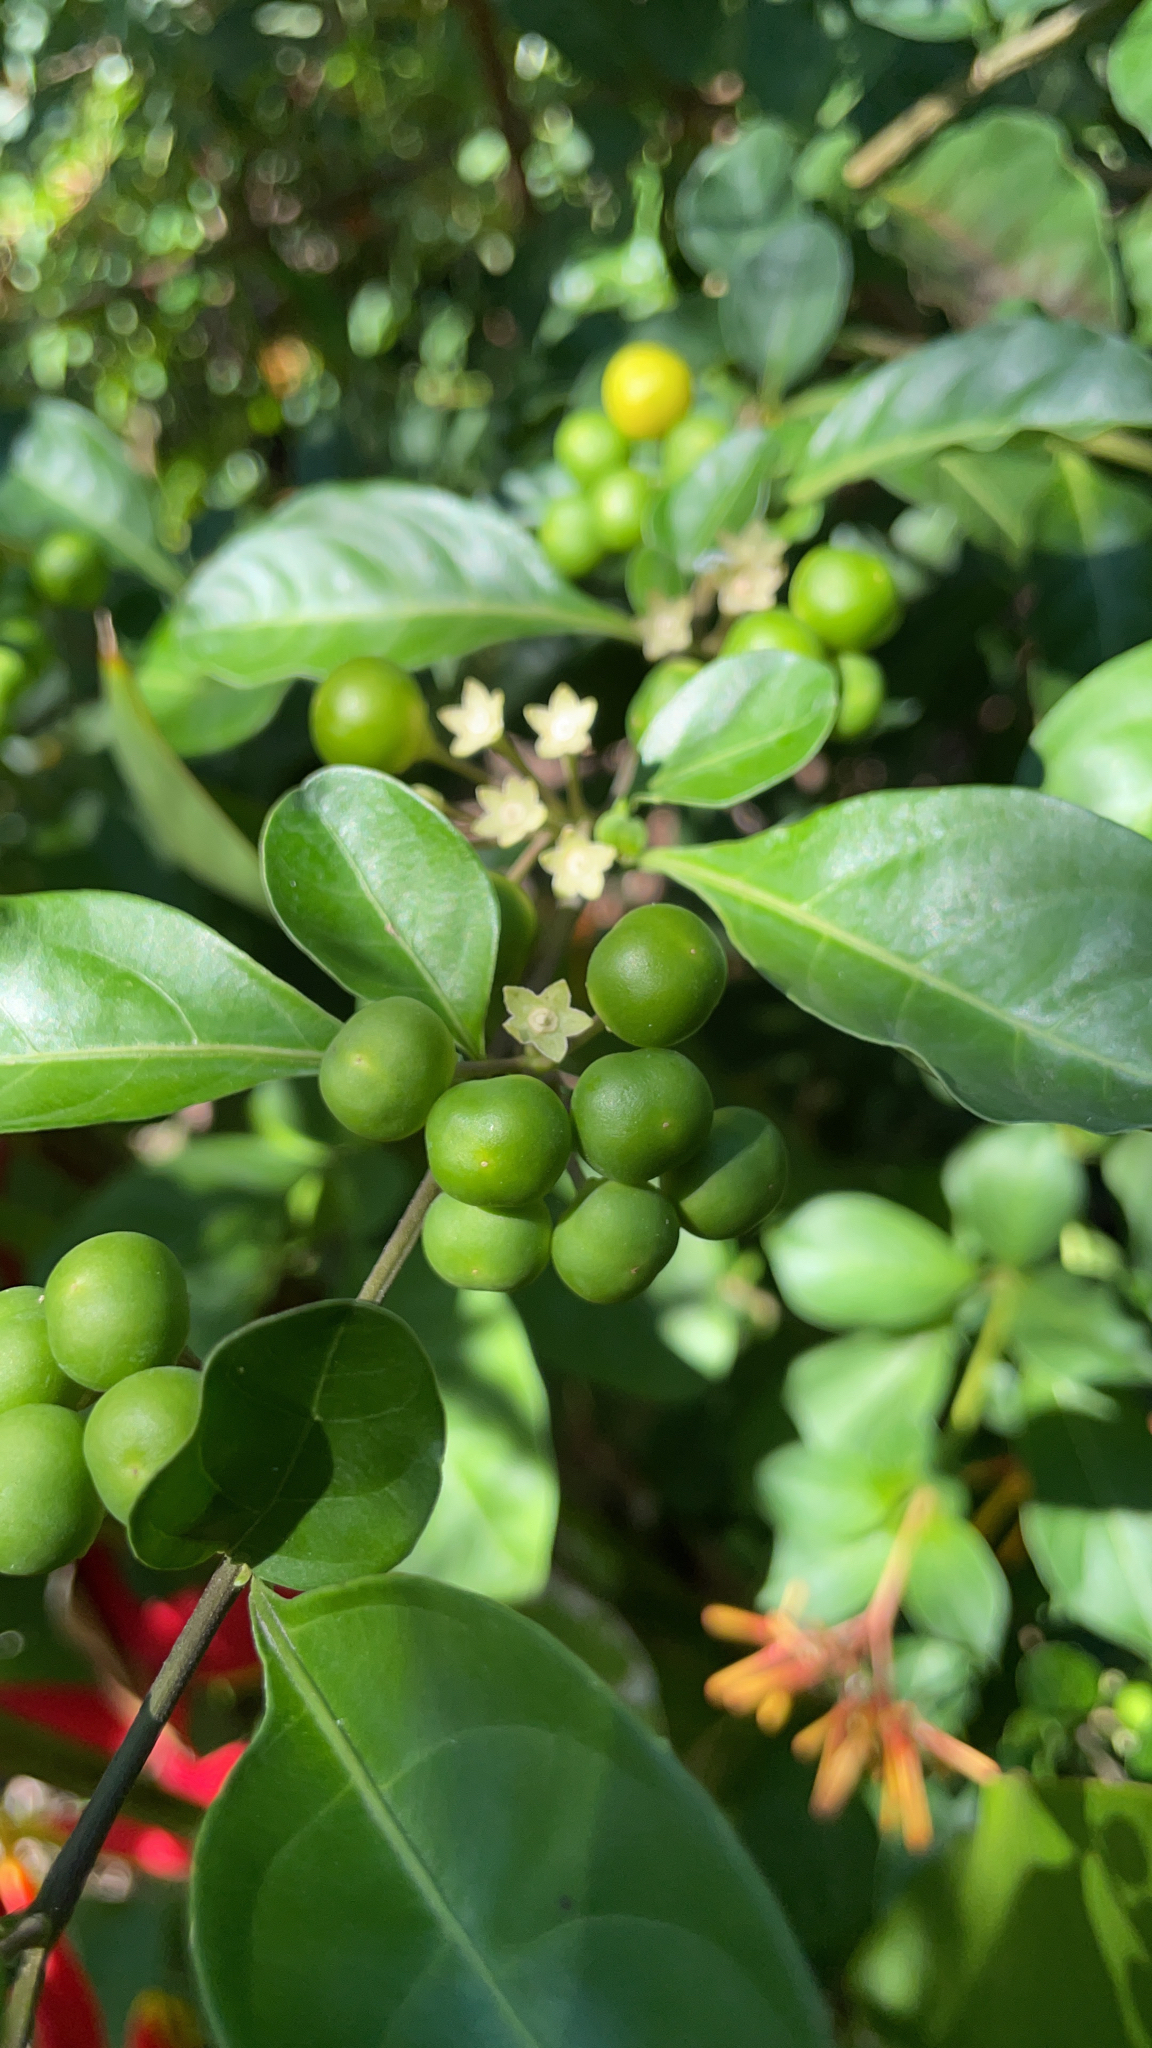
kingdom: Plantae
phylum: Tracheophyta
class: Magnoliopsida
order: Solanales
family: Solanaceae
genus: Solanum
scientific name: Solanum diphyllum
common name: Twoleaf nightshade
